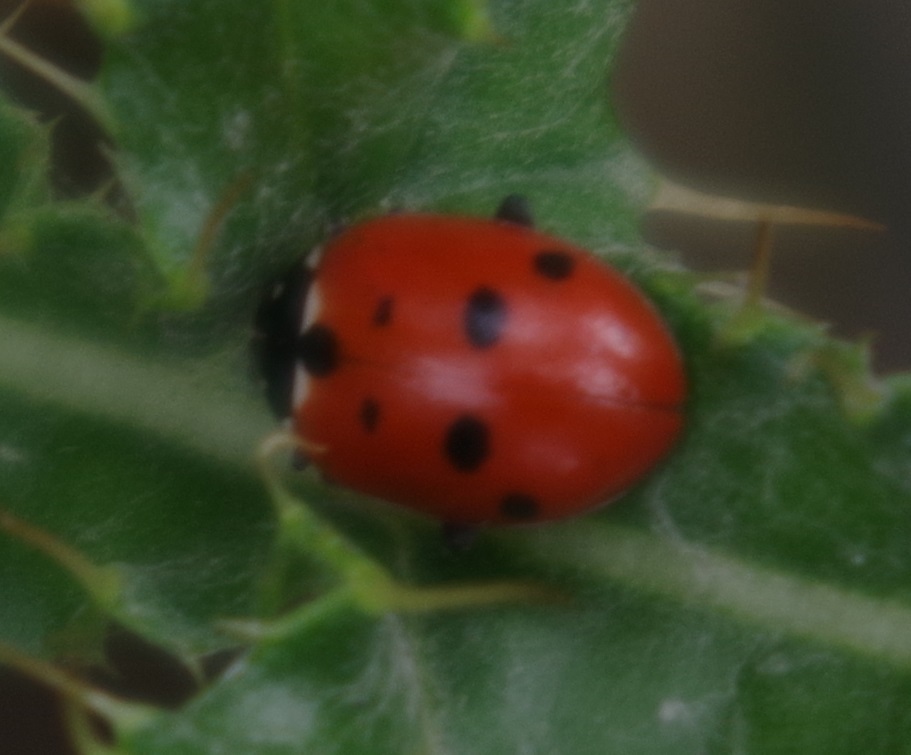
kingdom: Animalia
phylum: Arthropoda
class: Insecta
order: Coleoptera
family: Coccinellidae
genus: Hippodamia
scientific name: Hippodamia variegata
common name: Ladybird beetle
